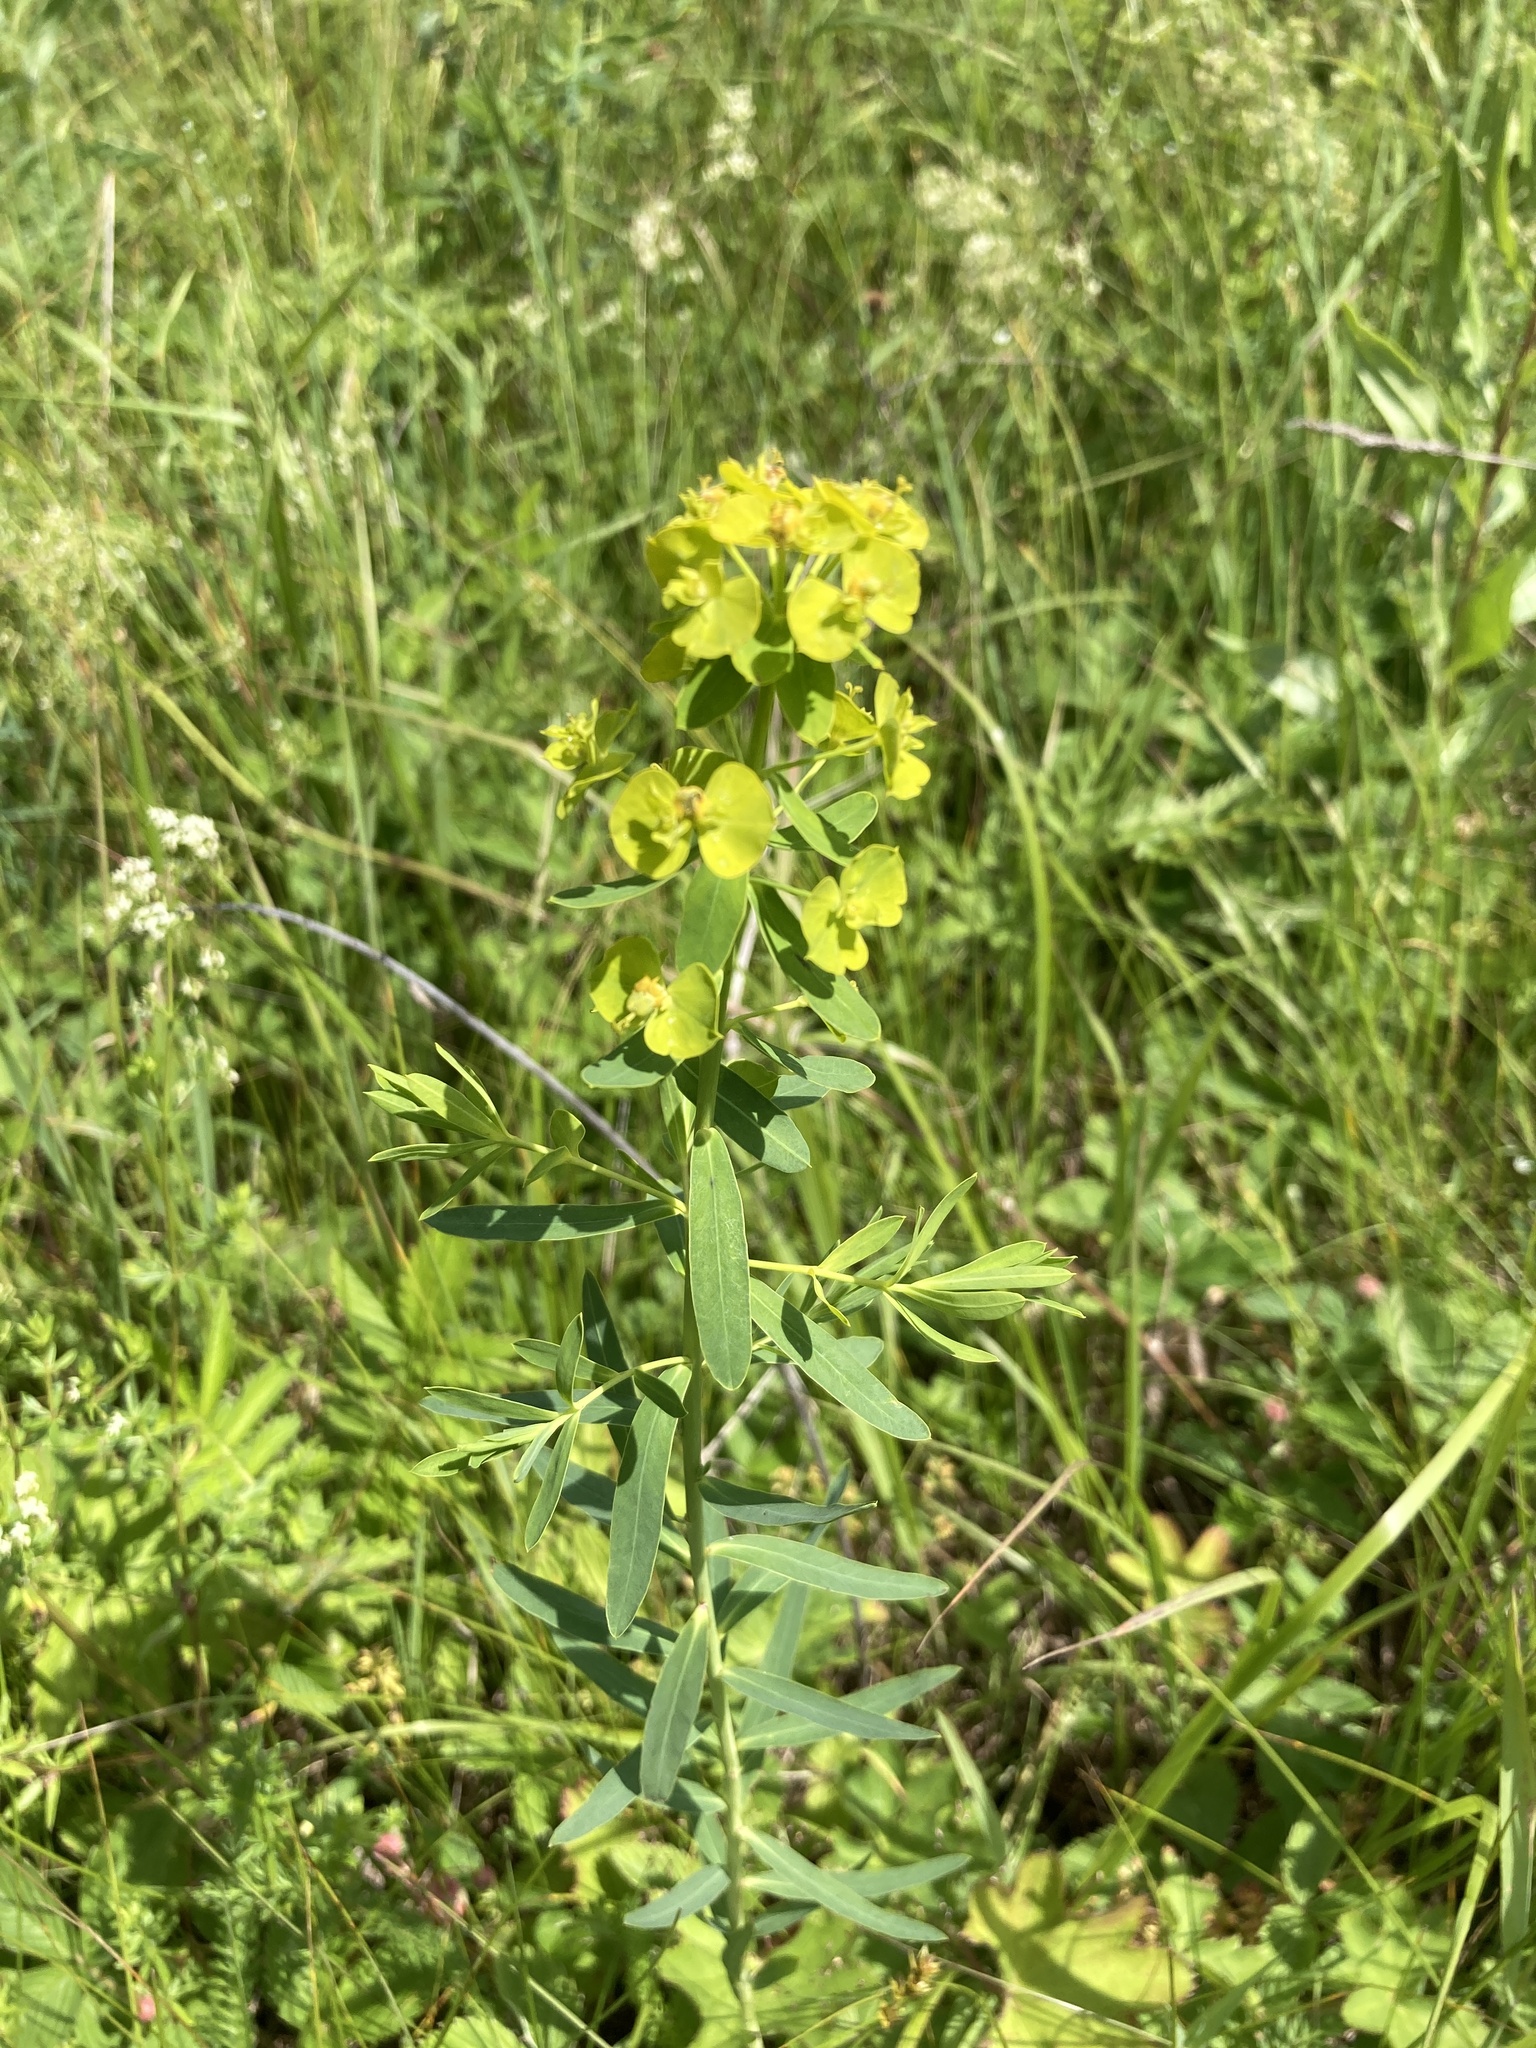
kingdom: Plantae
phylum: Tracheophyta
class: Magnoliopsida
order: Malpighiales
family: Euphorbiaceae
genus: Euphorbia
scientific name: Euphorbia virgata
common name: Leafy spurge
